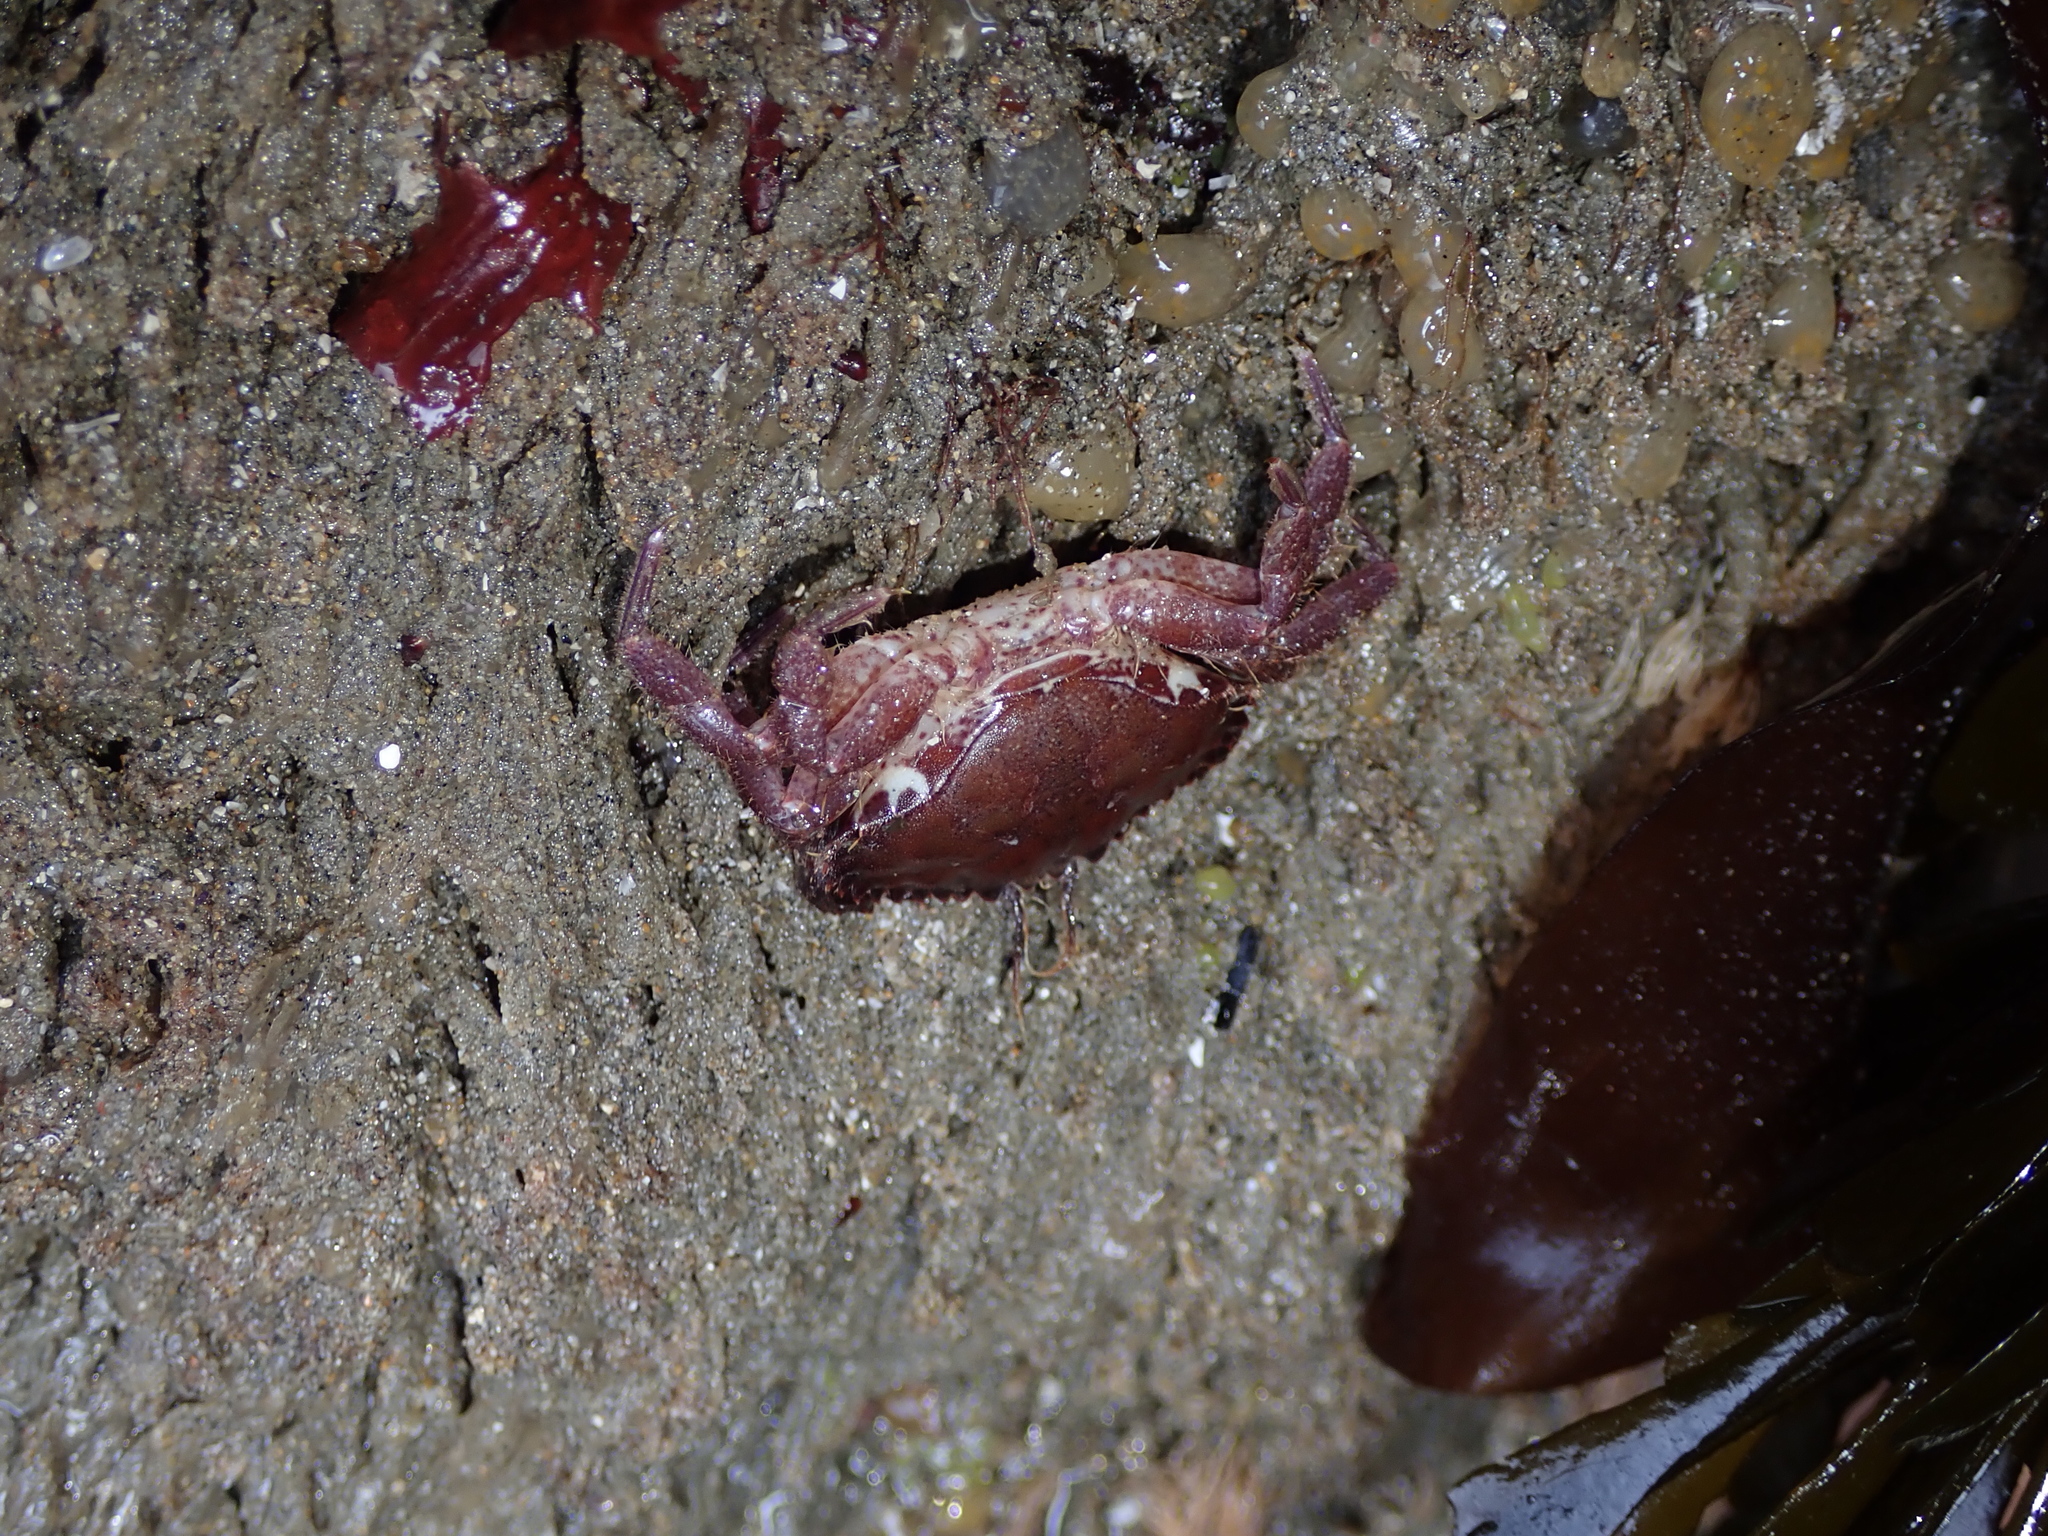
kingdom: Animalia
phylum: Arthropoda
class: Malacostraca
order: Decapoda
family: Cancridae
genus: Romaleon
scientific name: Romaleon antennarium
